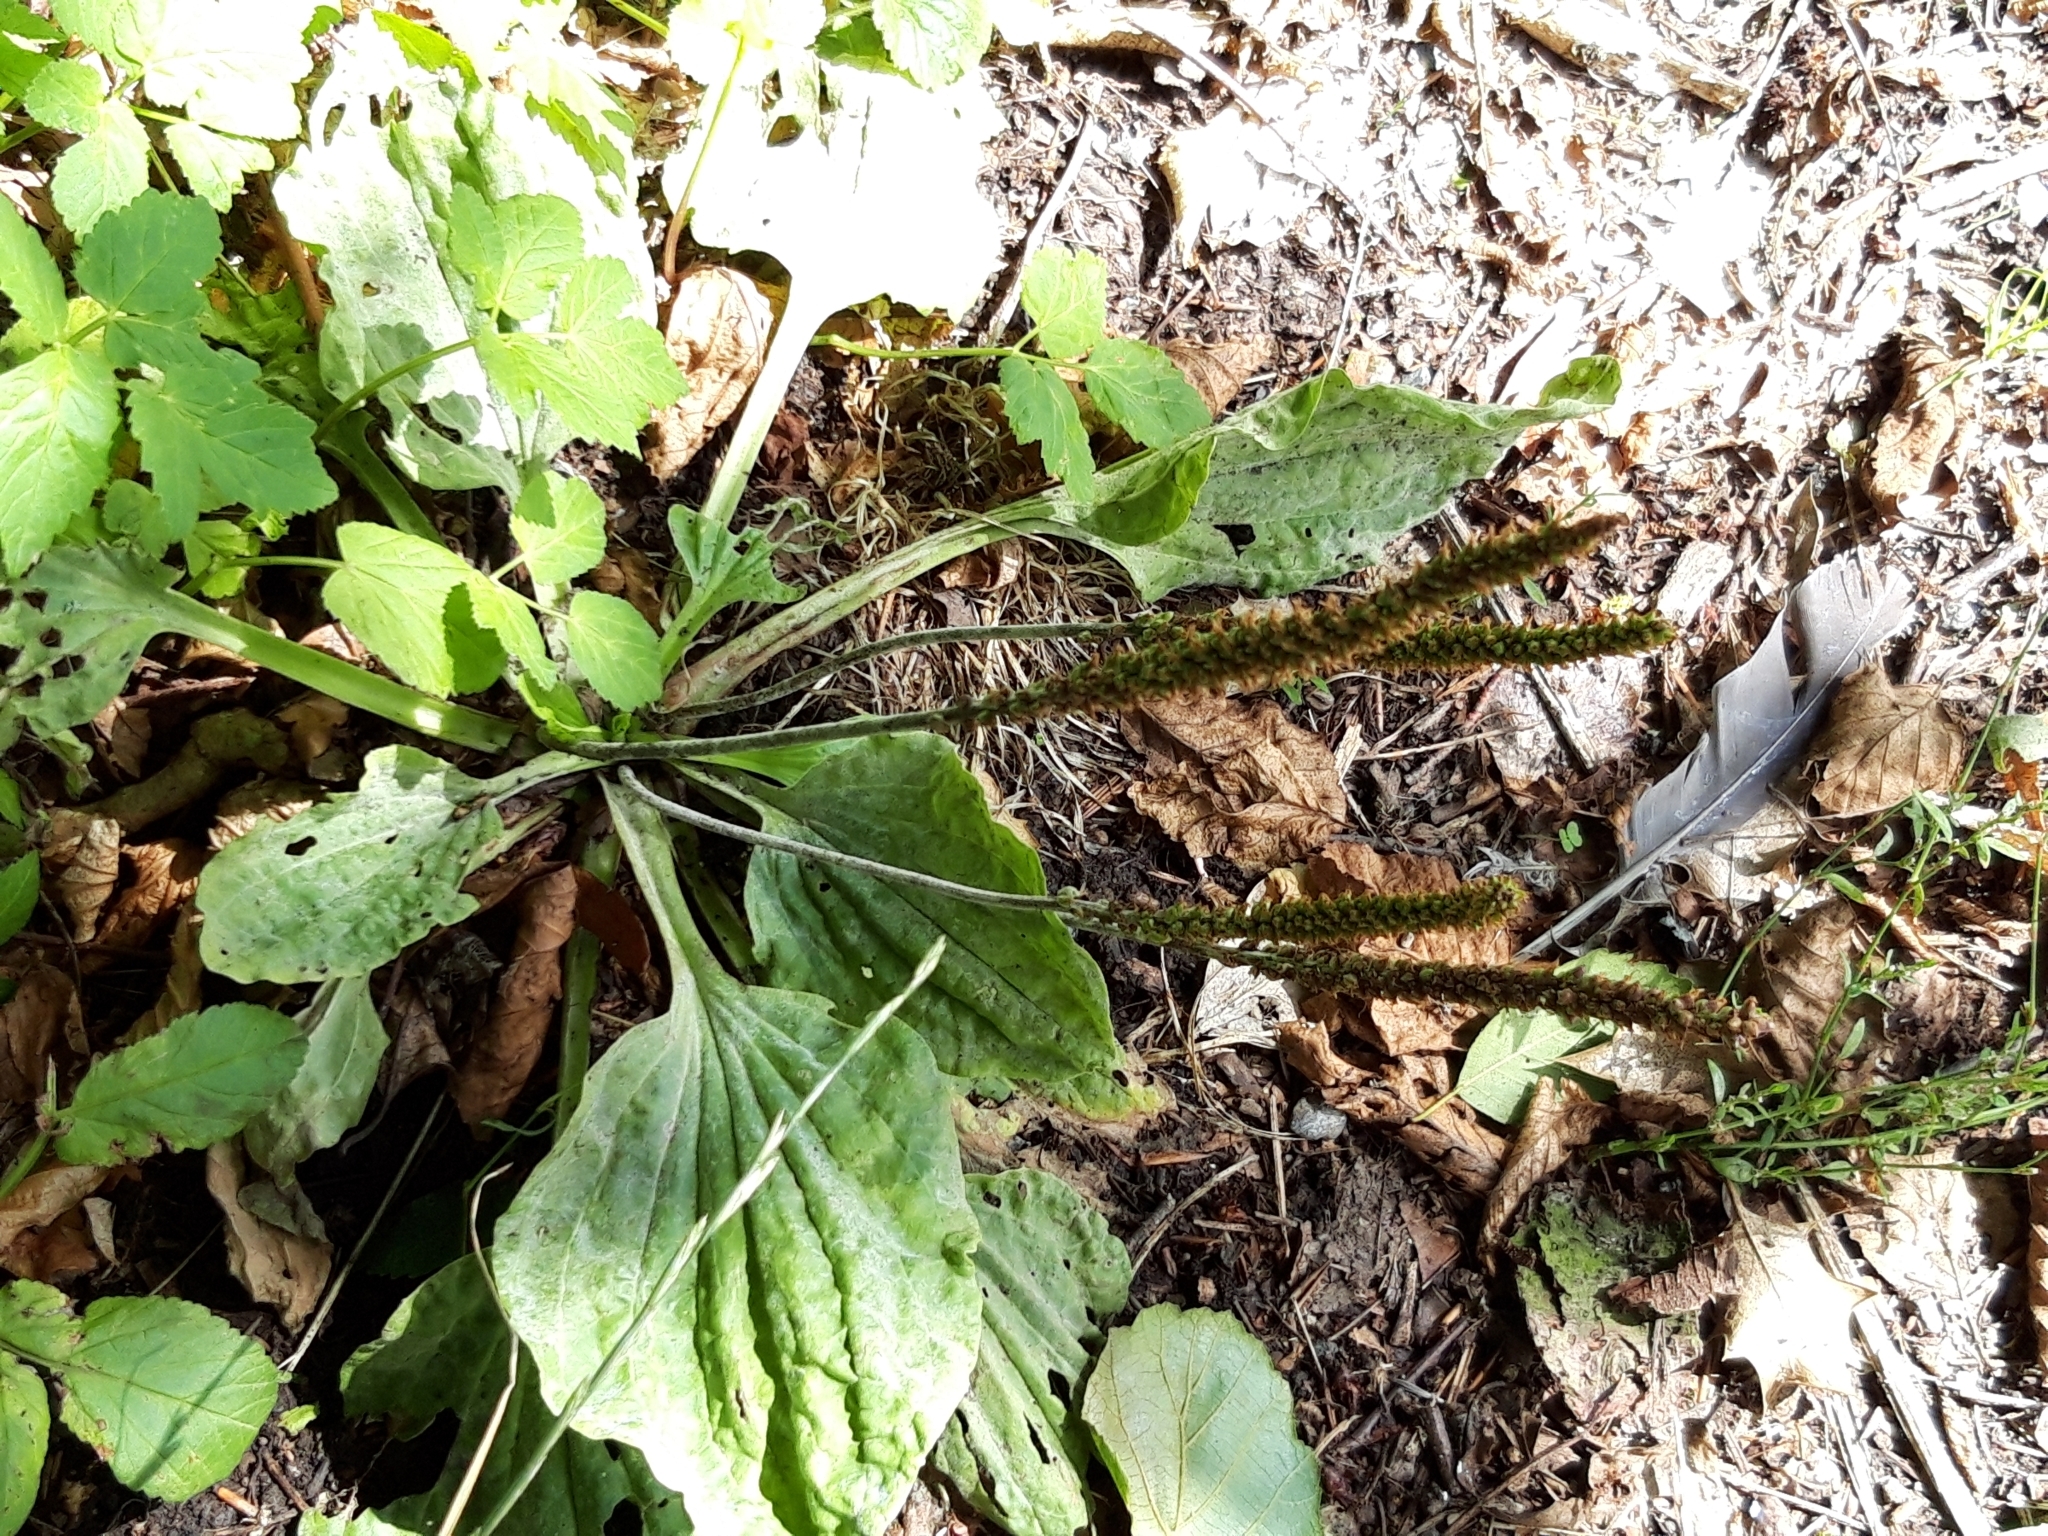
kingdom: Plantae
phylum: Tracheophyta
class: Magnoliopsida
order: Lamiales
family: Plantaginaceae
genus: Plantago
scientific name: Plantago major
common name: Common plantain
